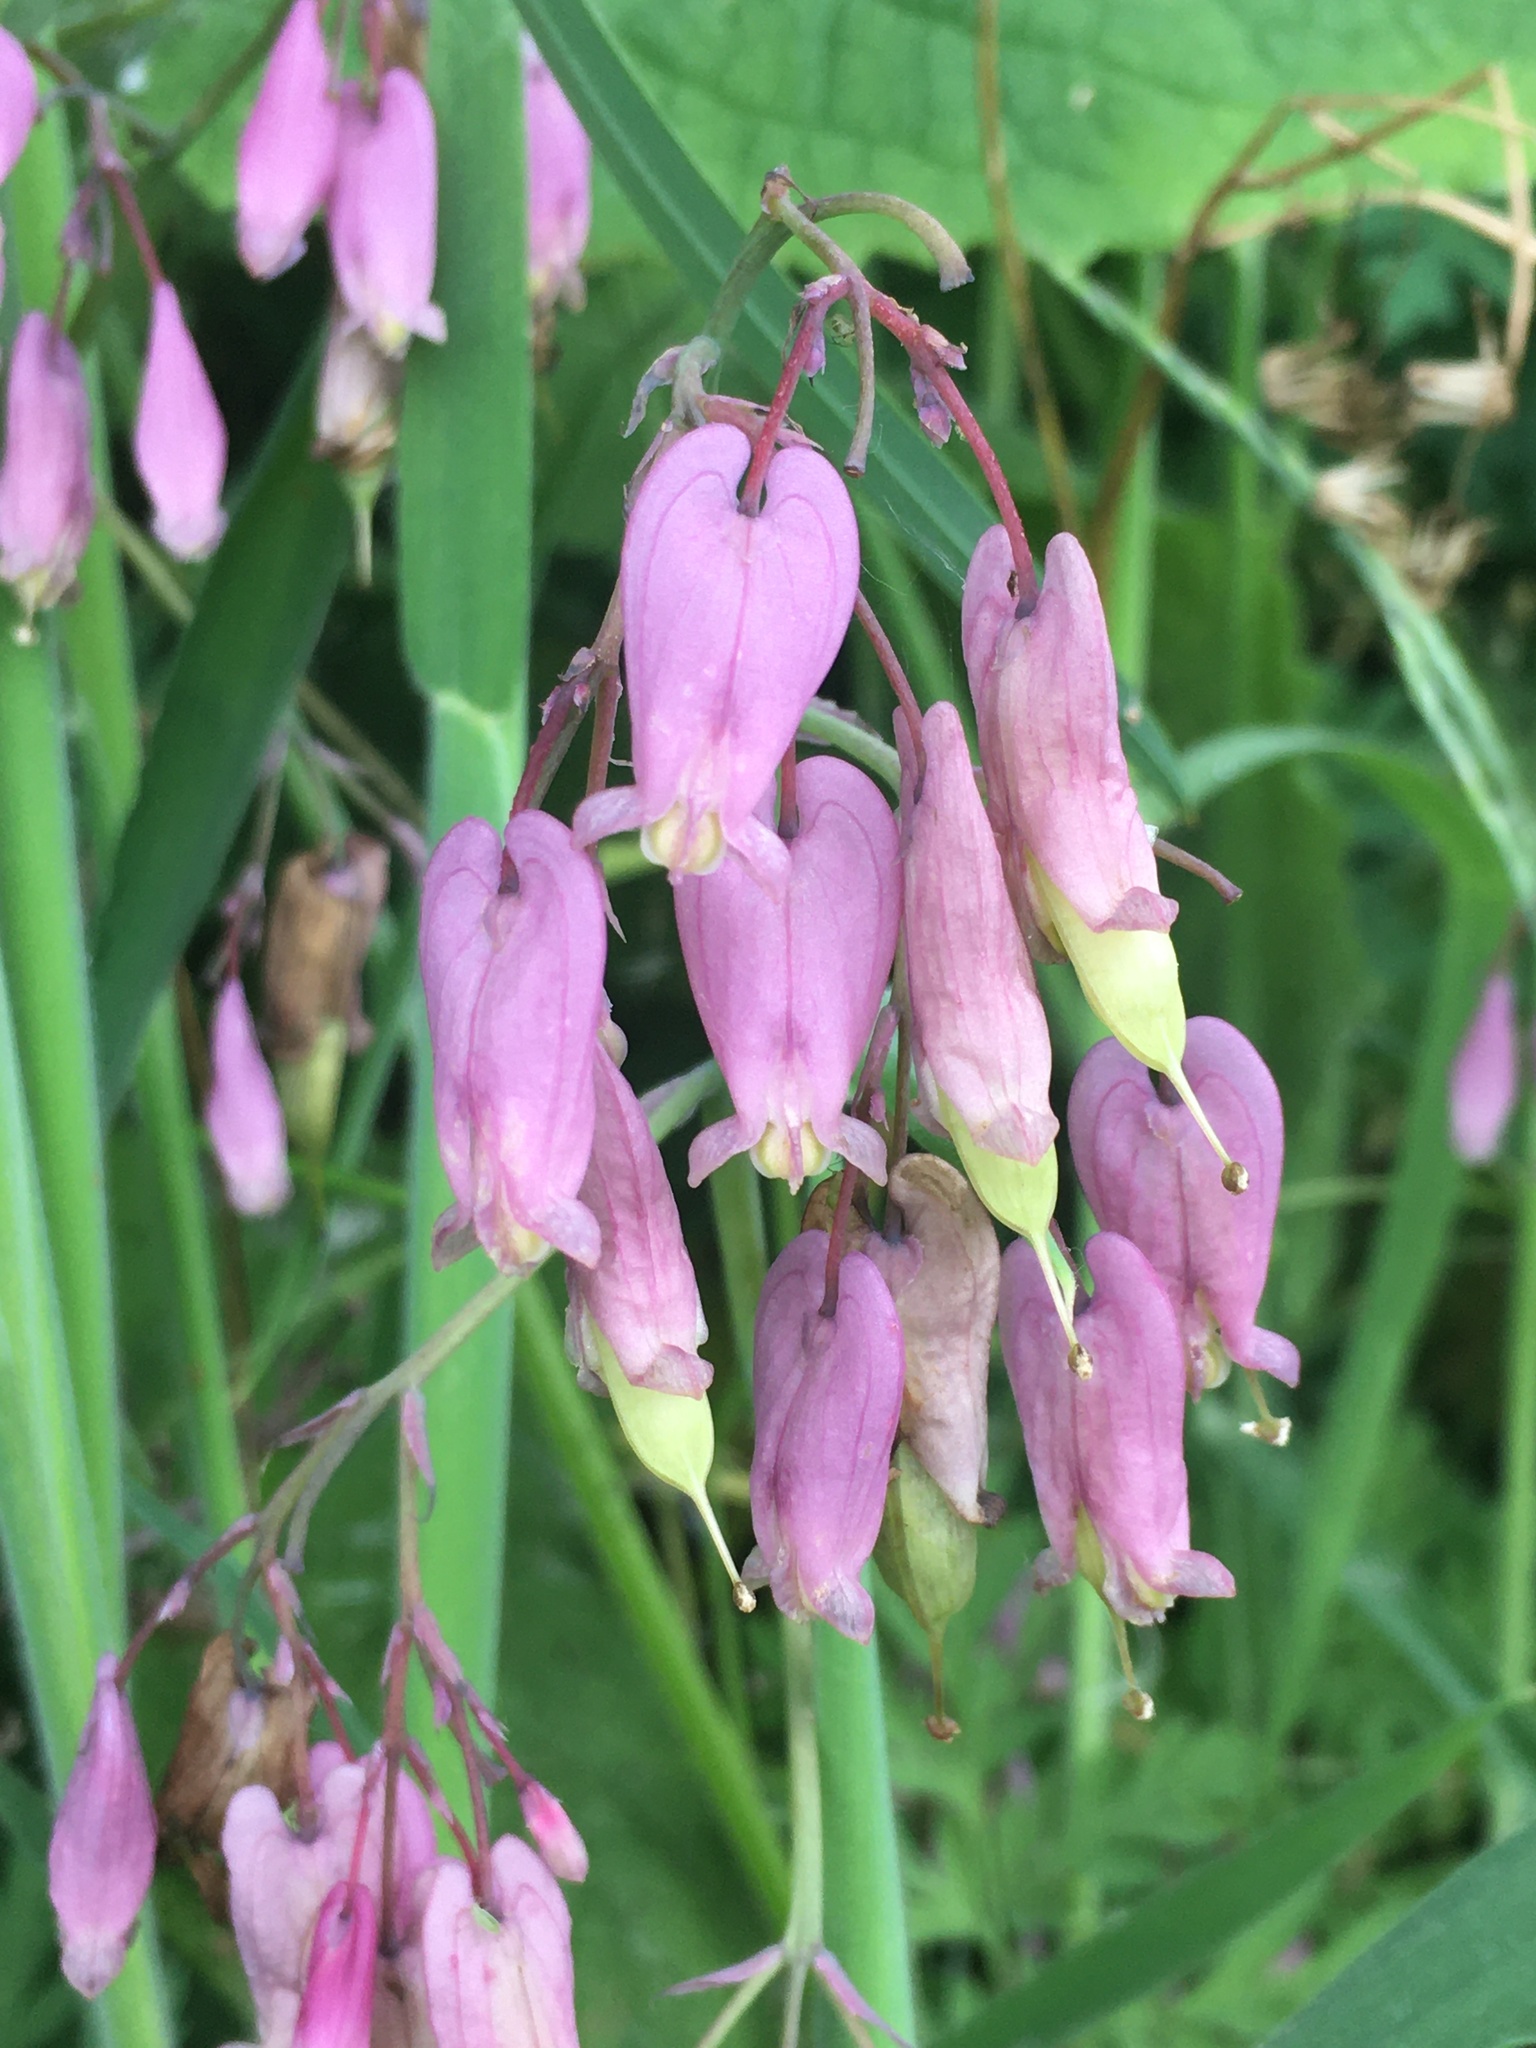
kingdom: Plantae
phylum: Tracheophyta
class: Magnoliopsida
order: Ranunculales
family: Papaveraceae
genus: Dicentra
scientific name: Dicentra formosa
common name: Bleeding-heart
